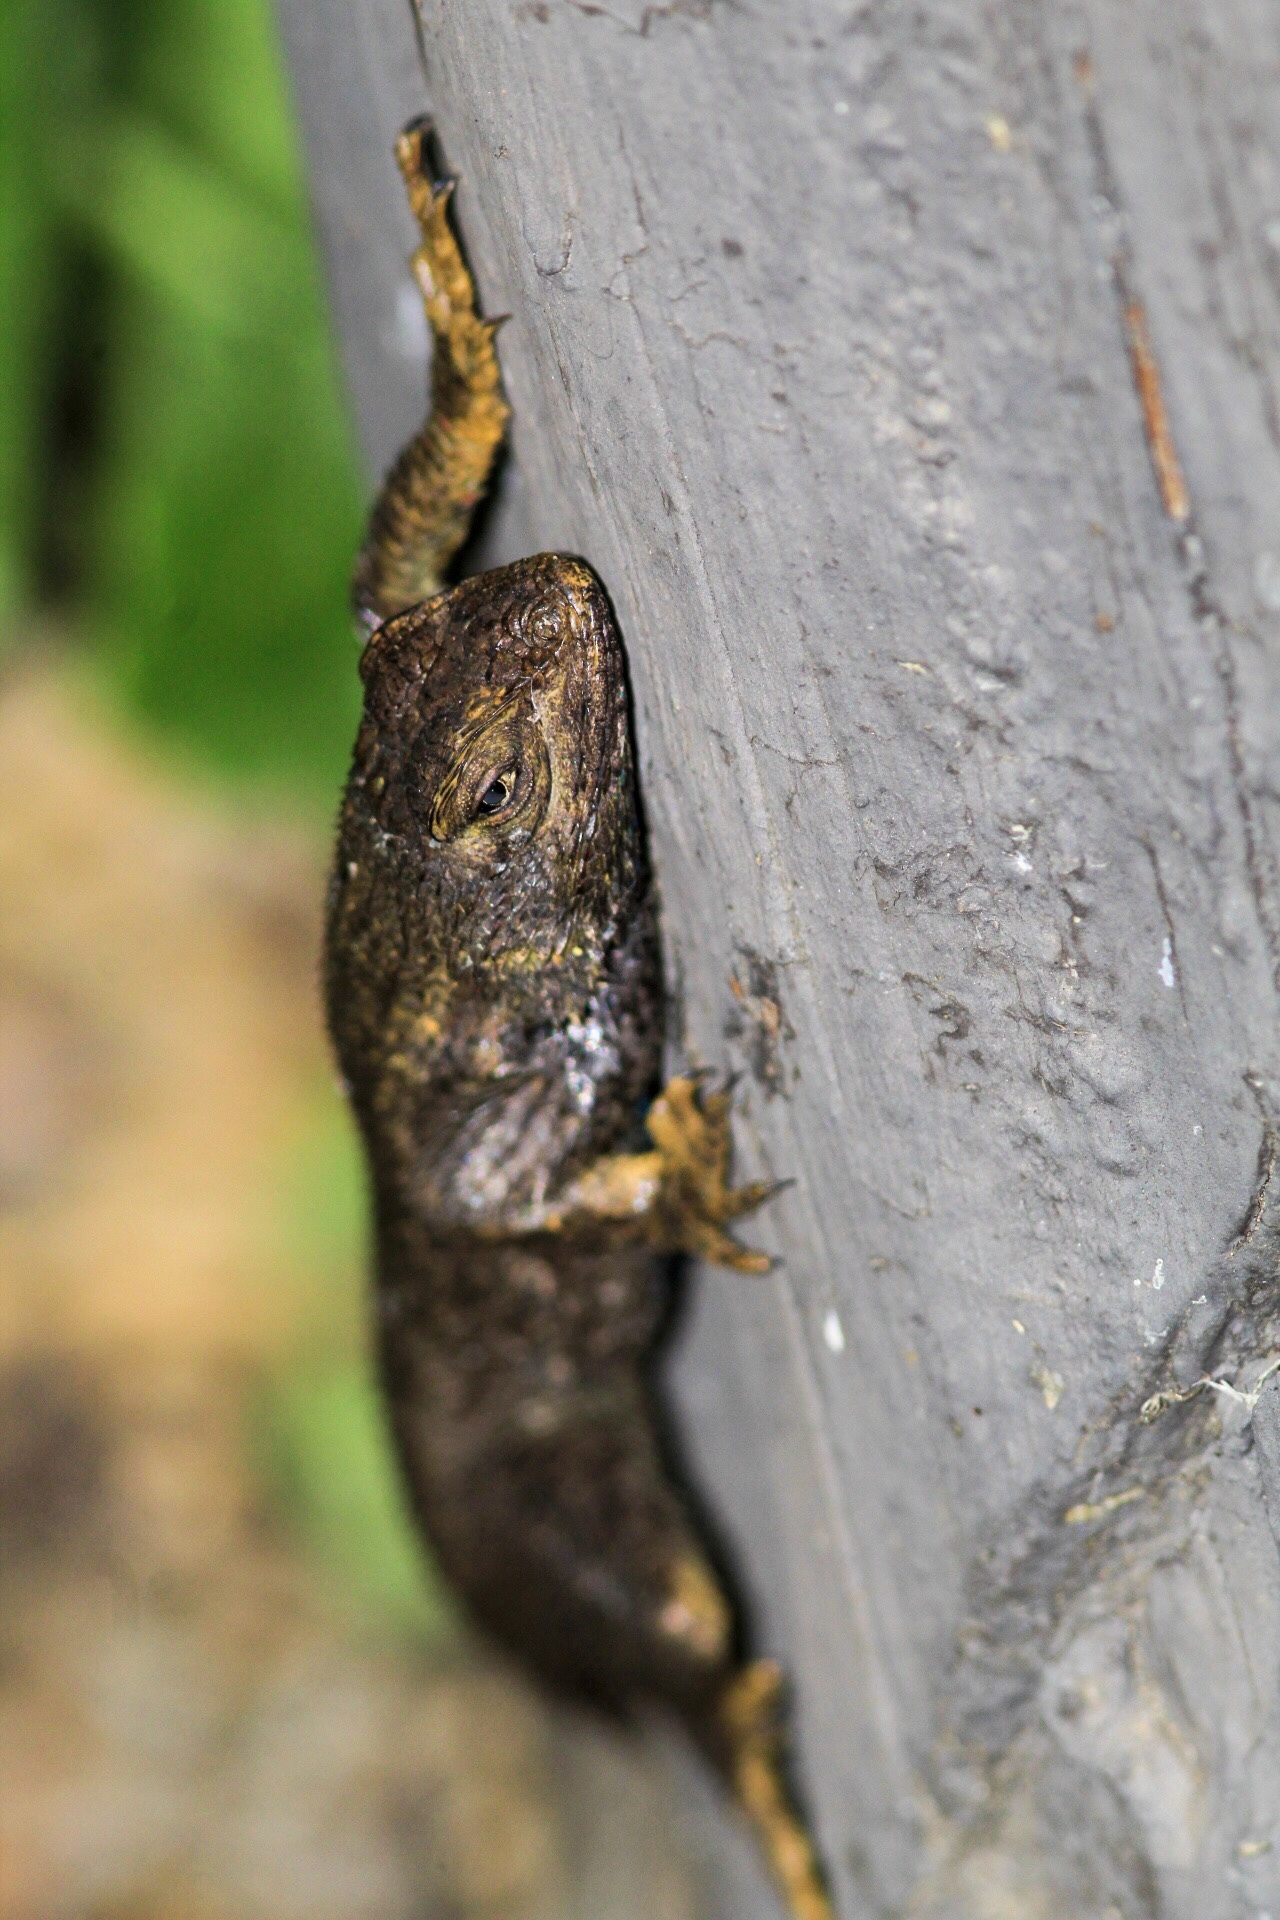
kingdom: Animalia
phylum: Chordata
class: Squamata
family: Phrynosomatidae
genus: Sceloporus
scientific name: Sceloporus occidentalis
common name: Western fence lizard
